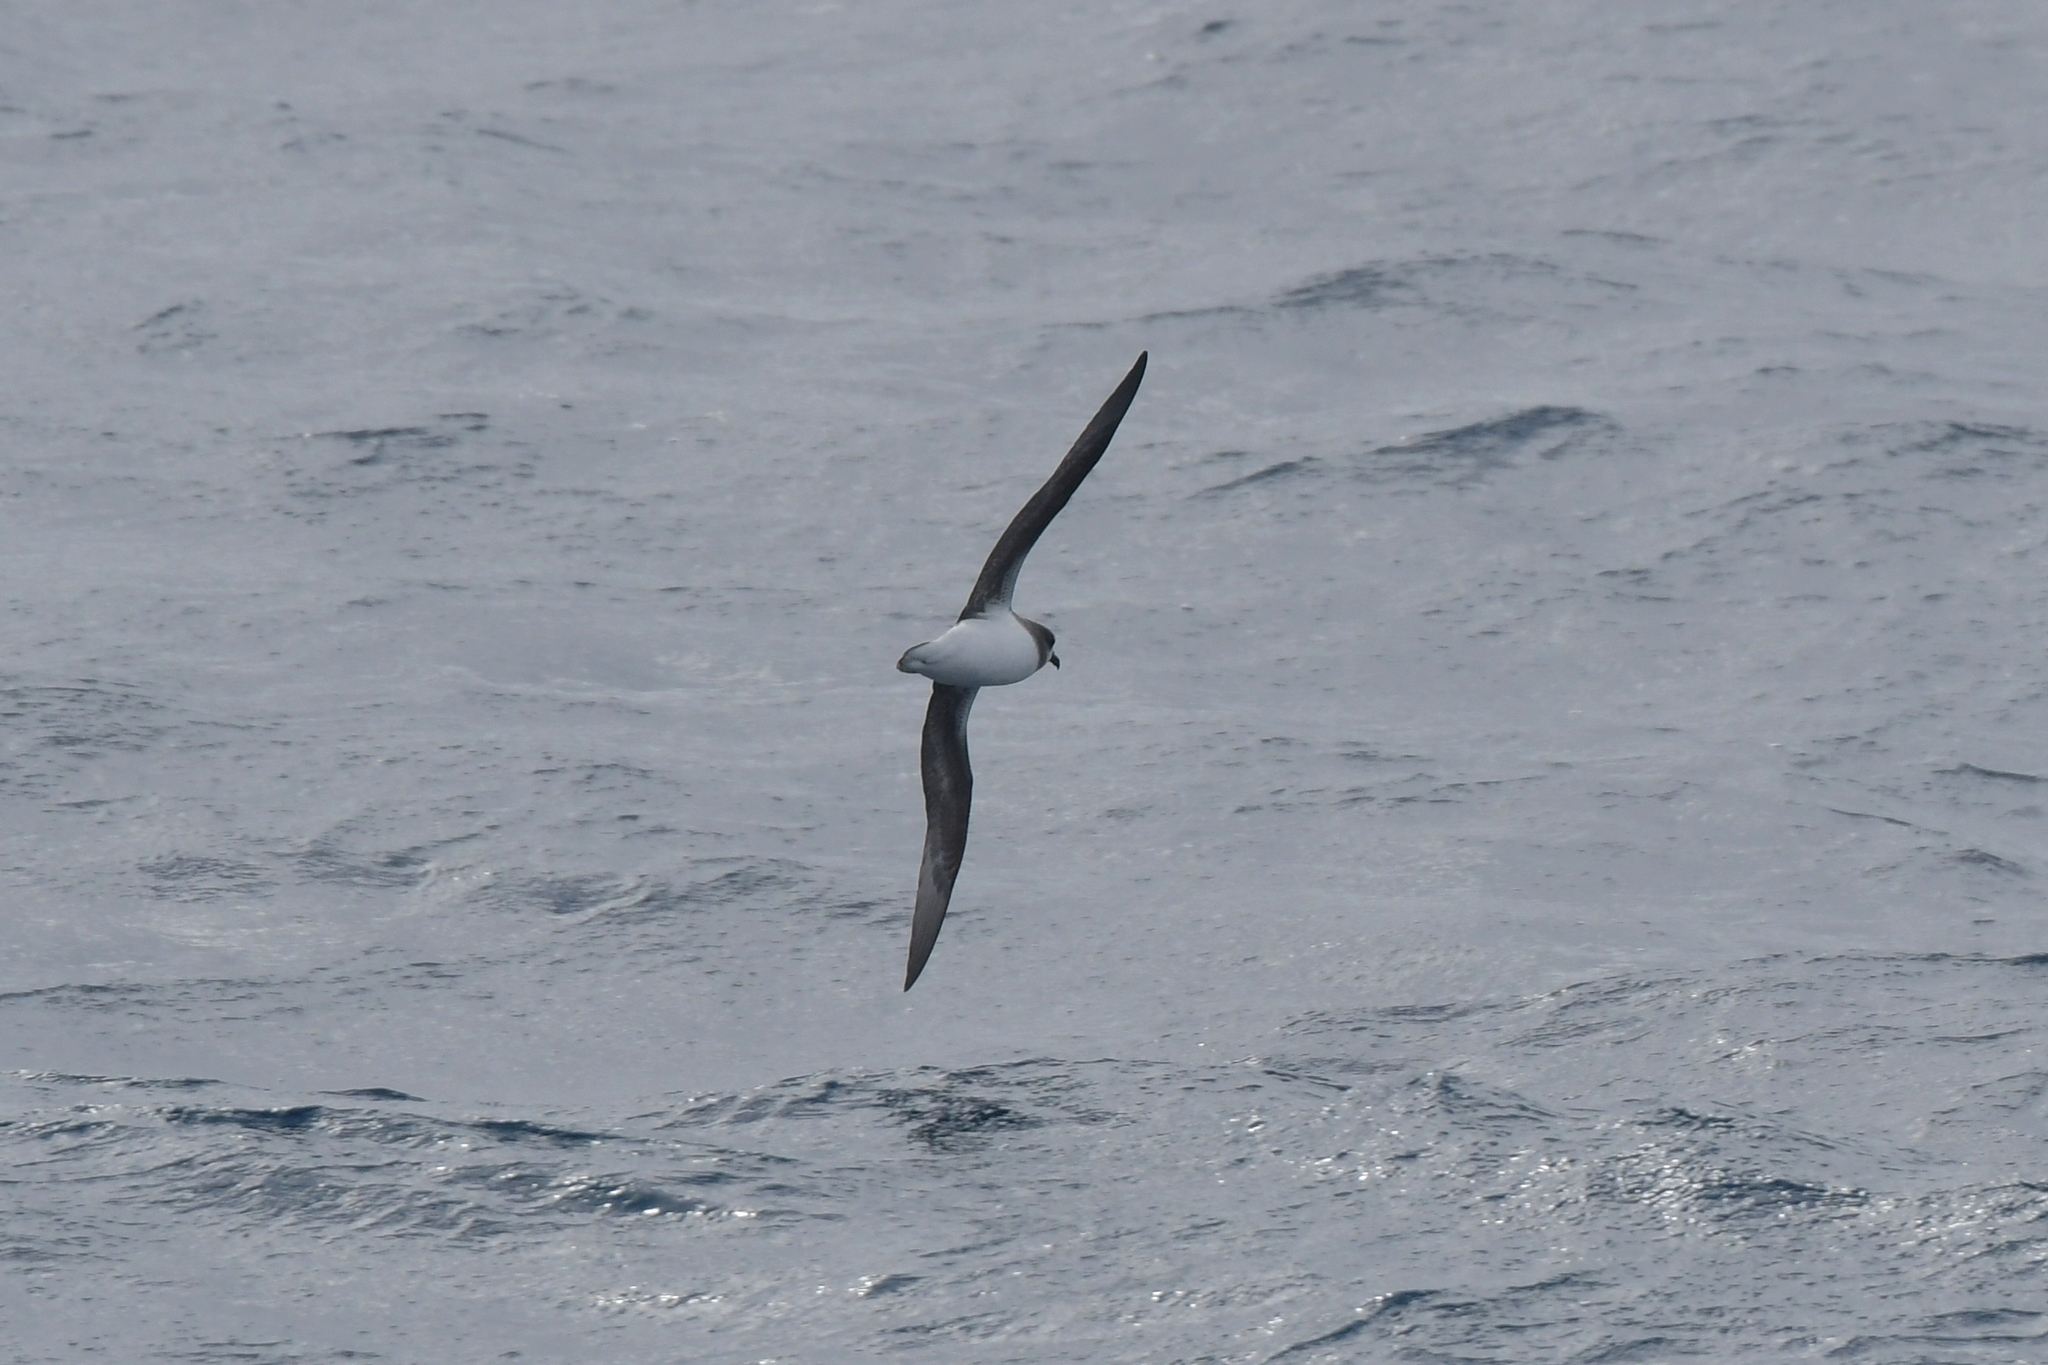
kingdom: Animalia
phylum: Chordata
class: Aves
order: Procellariiformes
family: Procellariidae
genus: Pterodroma
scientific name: Pterodroma mollis
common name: Soft-plumaged petrel
